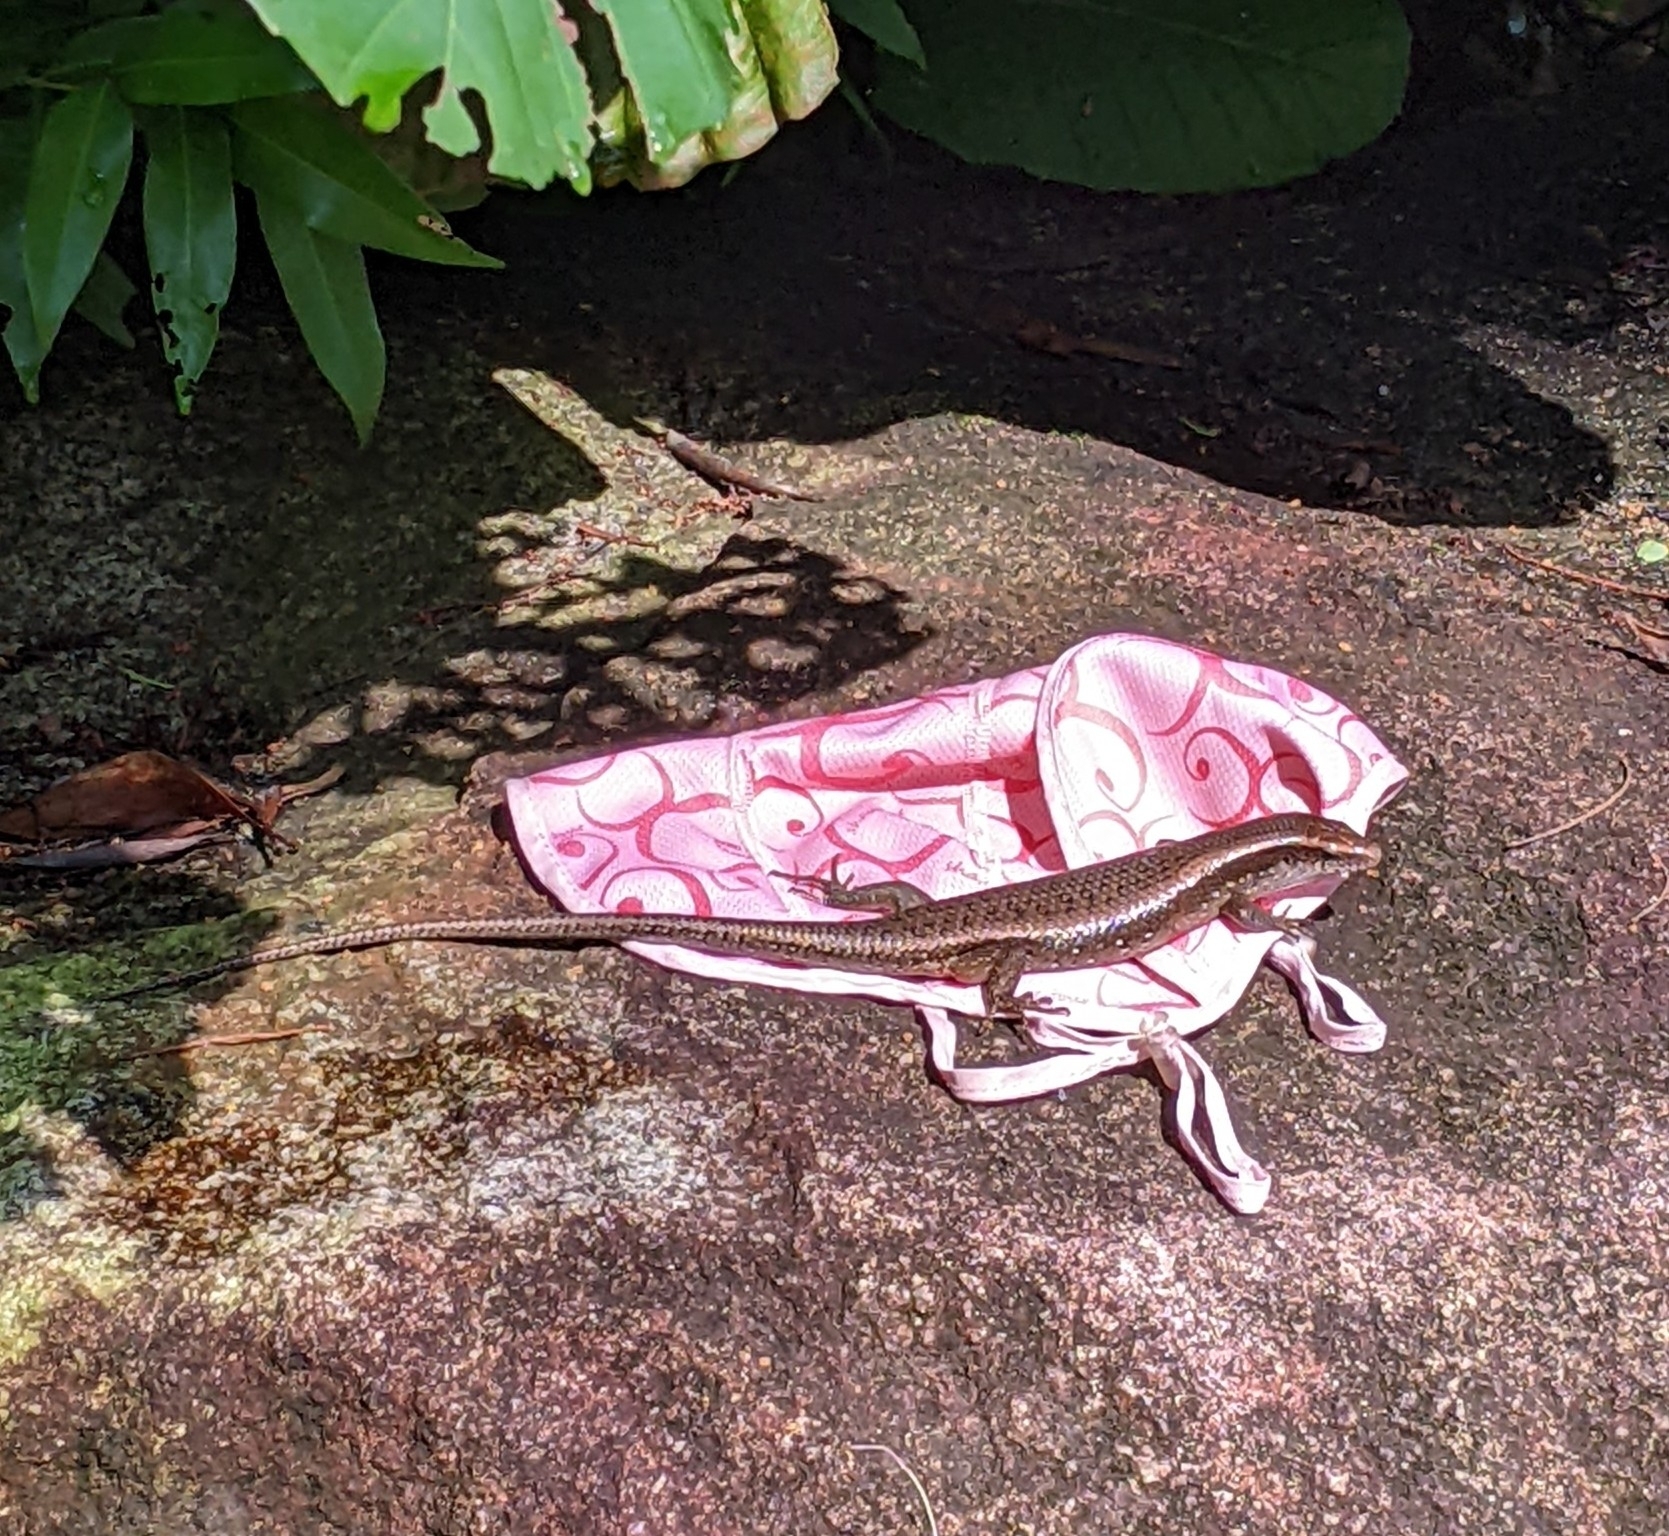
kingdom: Animalia
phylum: Chordata
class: Squamata
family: Scincidae
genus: Eutropis
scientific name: Eutropis multifasciata
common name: Common mabuya
